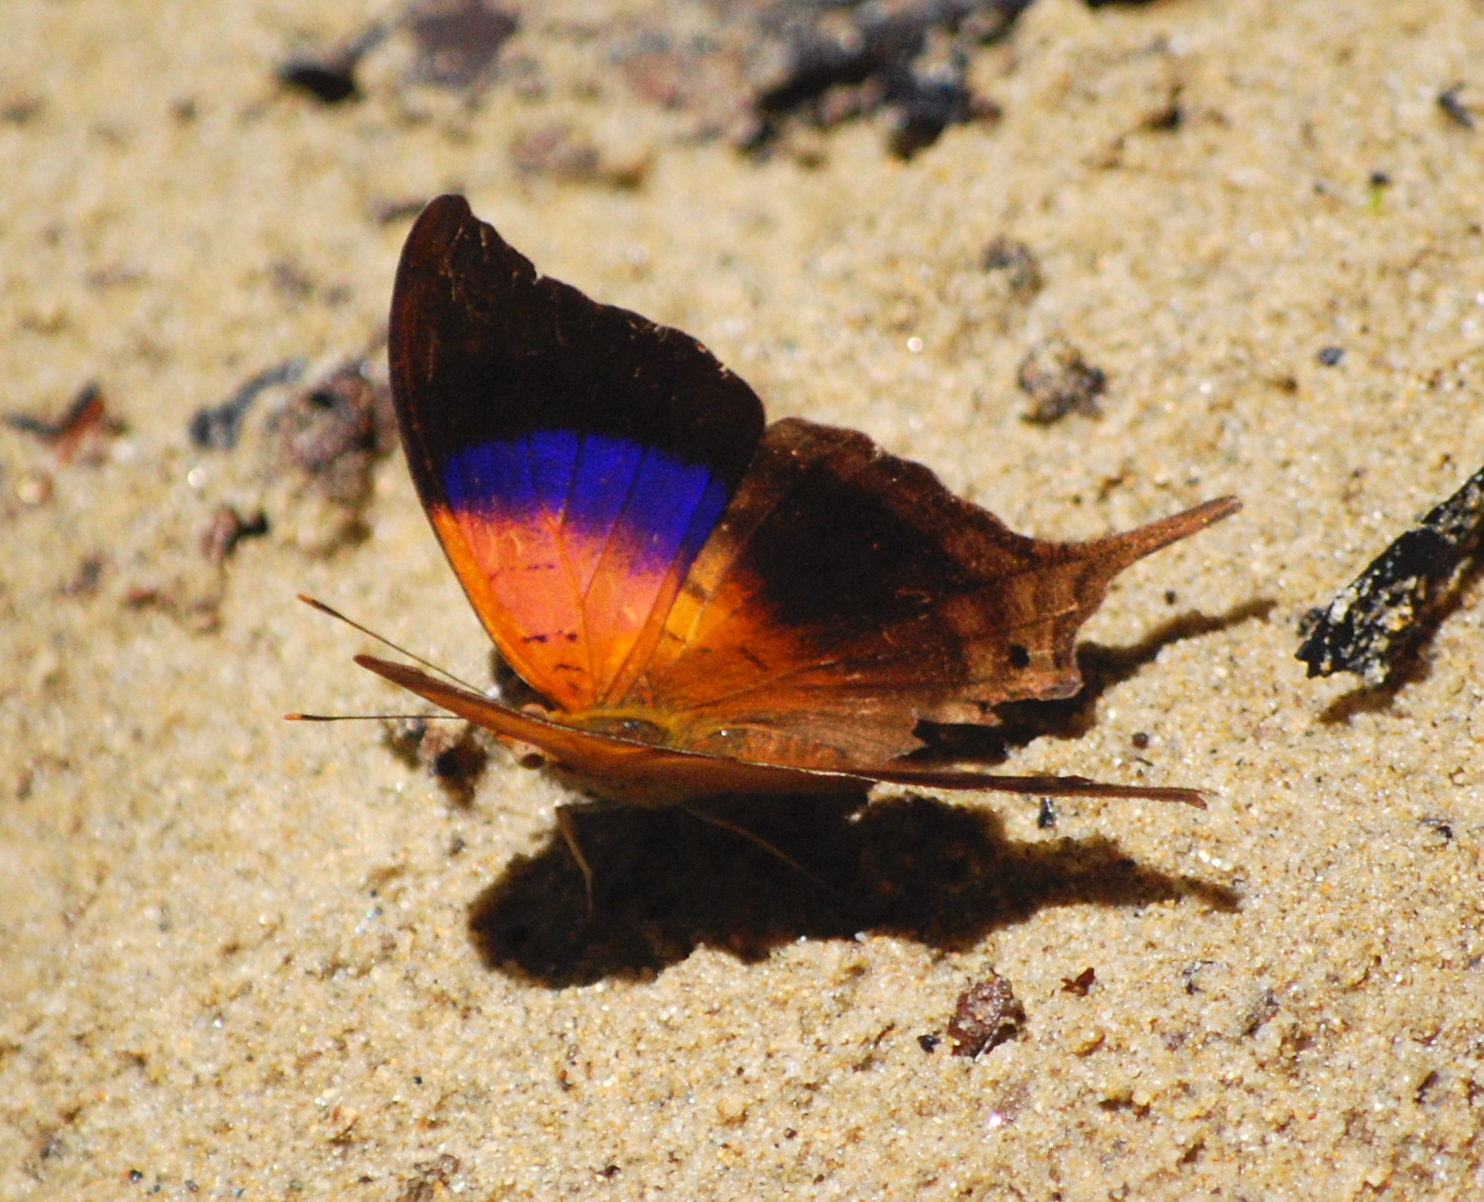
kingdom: Animalia
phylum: Arthropoda
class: Insecta
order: Lepidoptera
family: Nymphalidae
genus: Marpesia
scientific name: Marpesia furcula
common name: Sunset daggerwing
